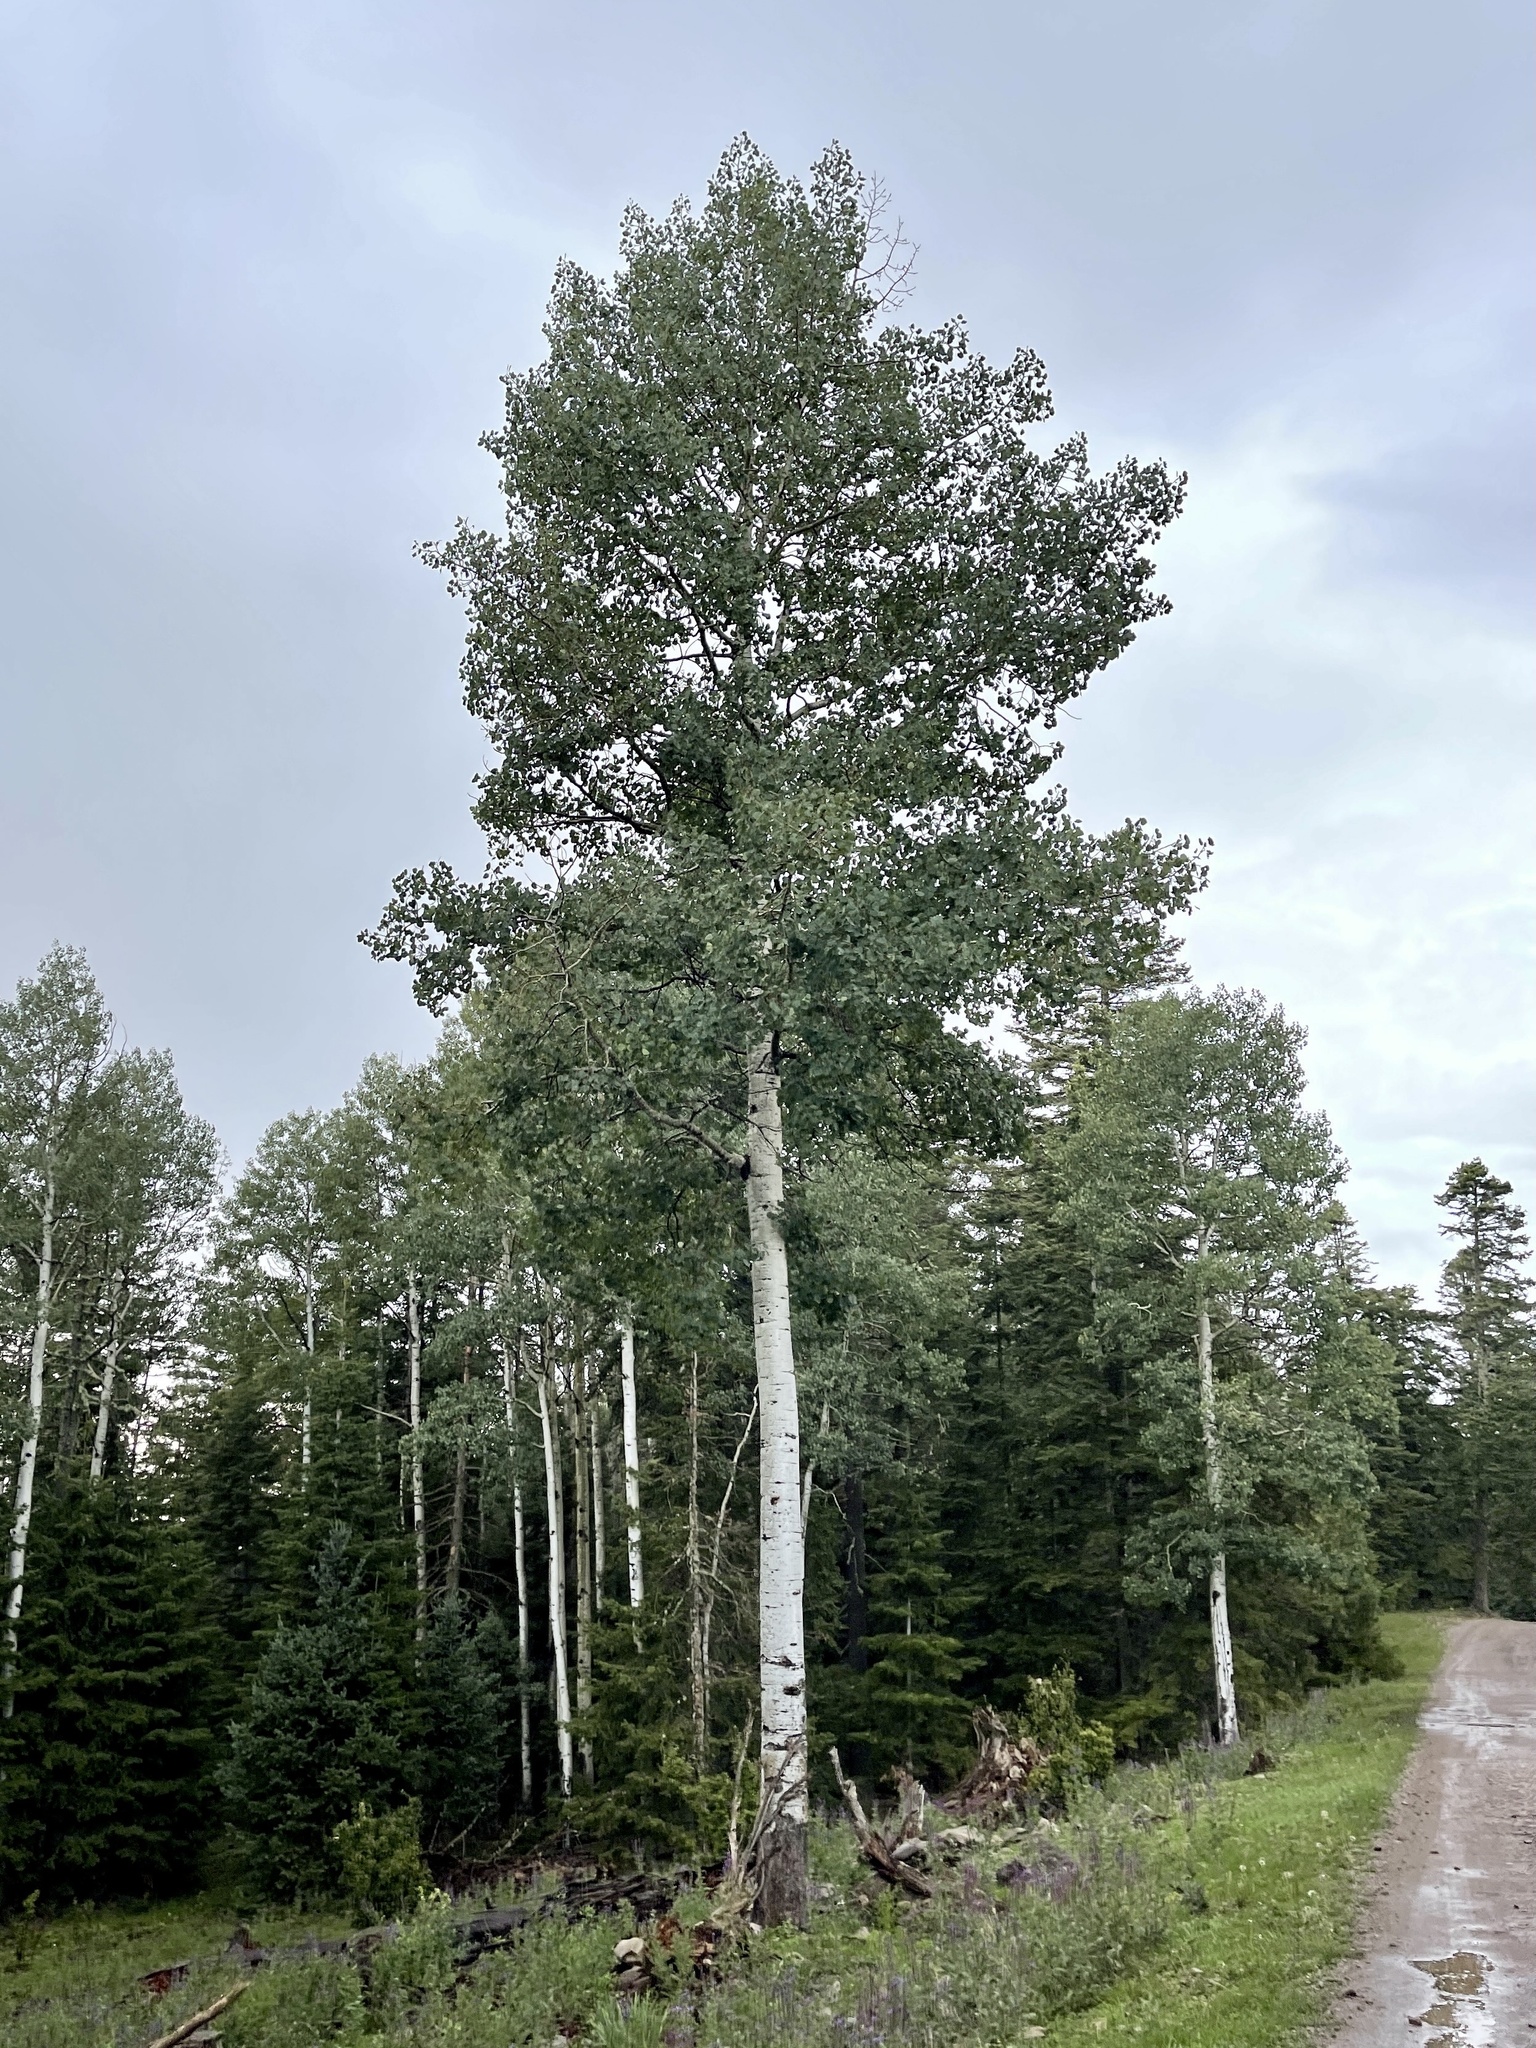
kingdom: Plantae
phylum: Tracheophyta
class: Magnoliopsida
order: Malpighiales
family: Salicaceae
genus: Populus
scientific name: Populus tremuloides
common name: Quaking aspen
